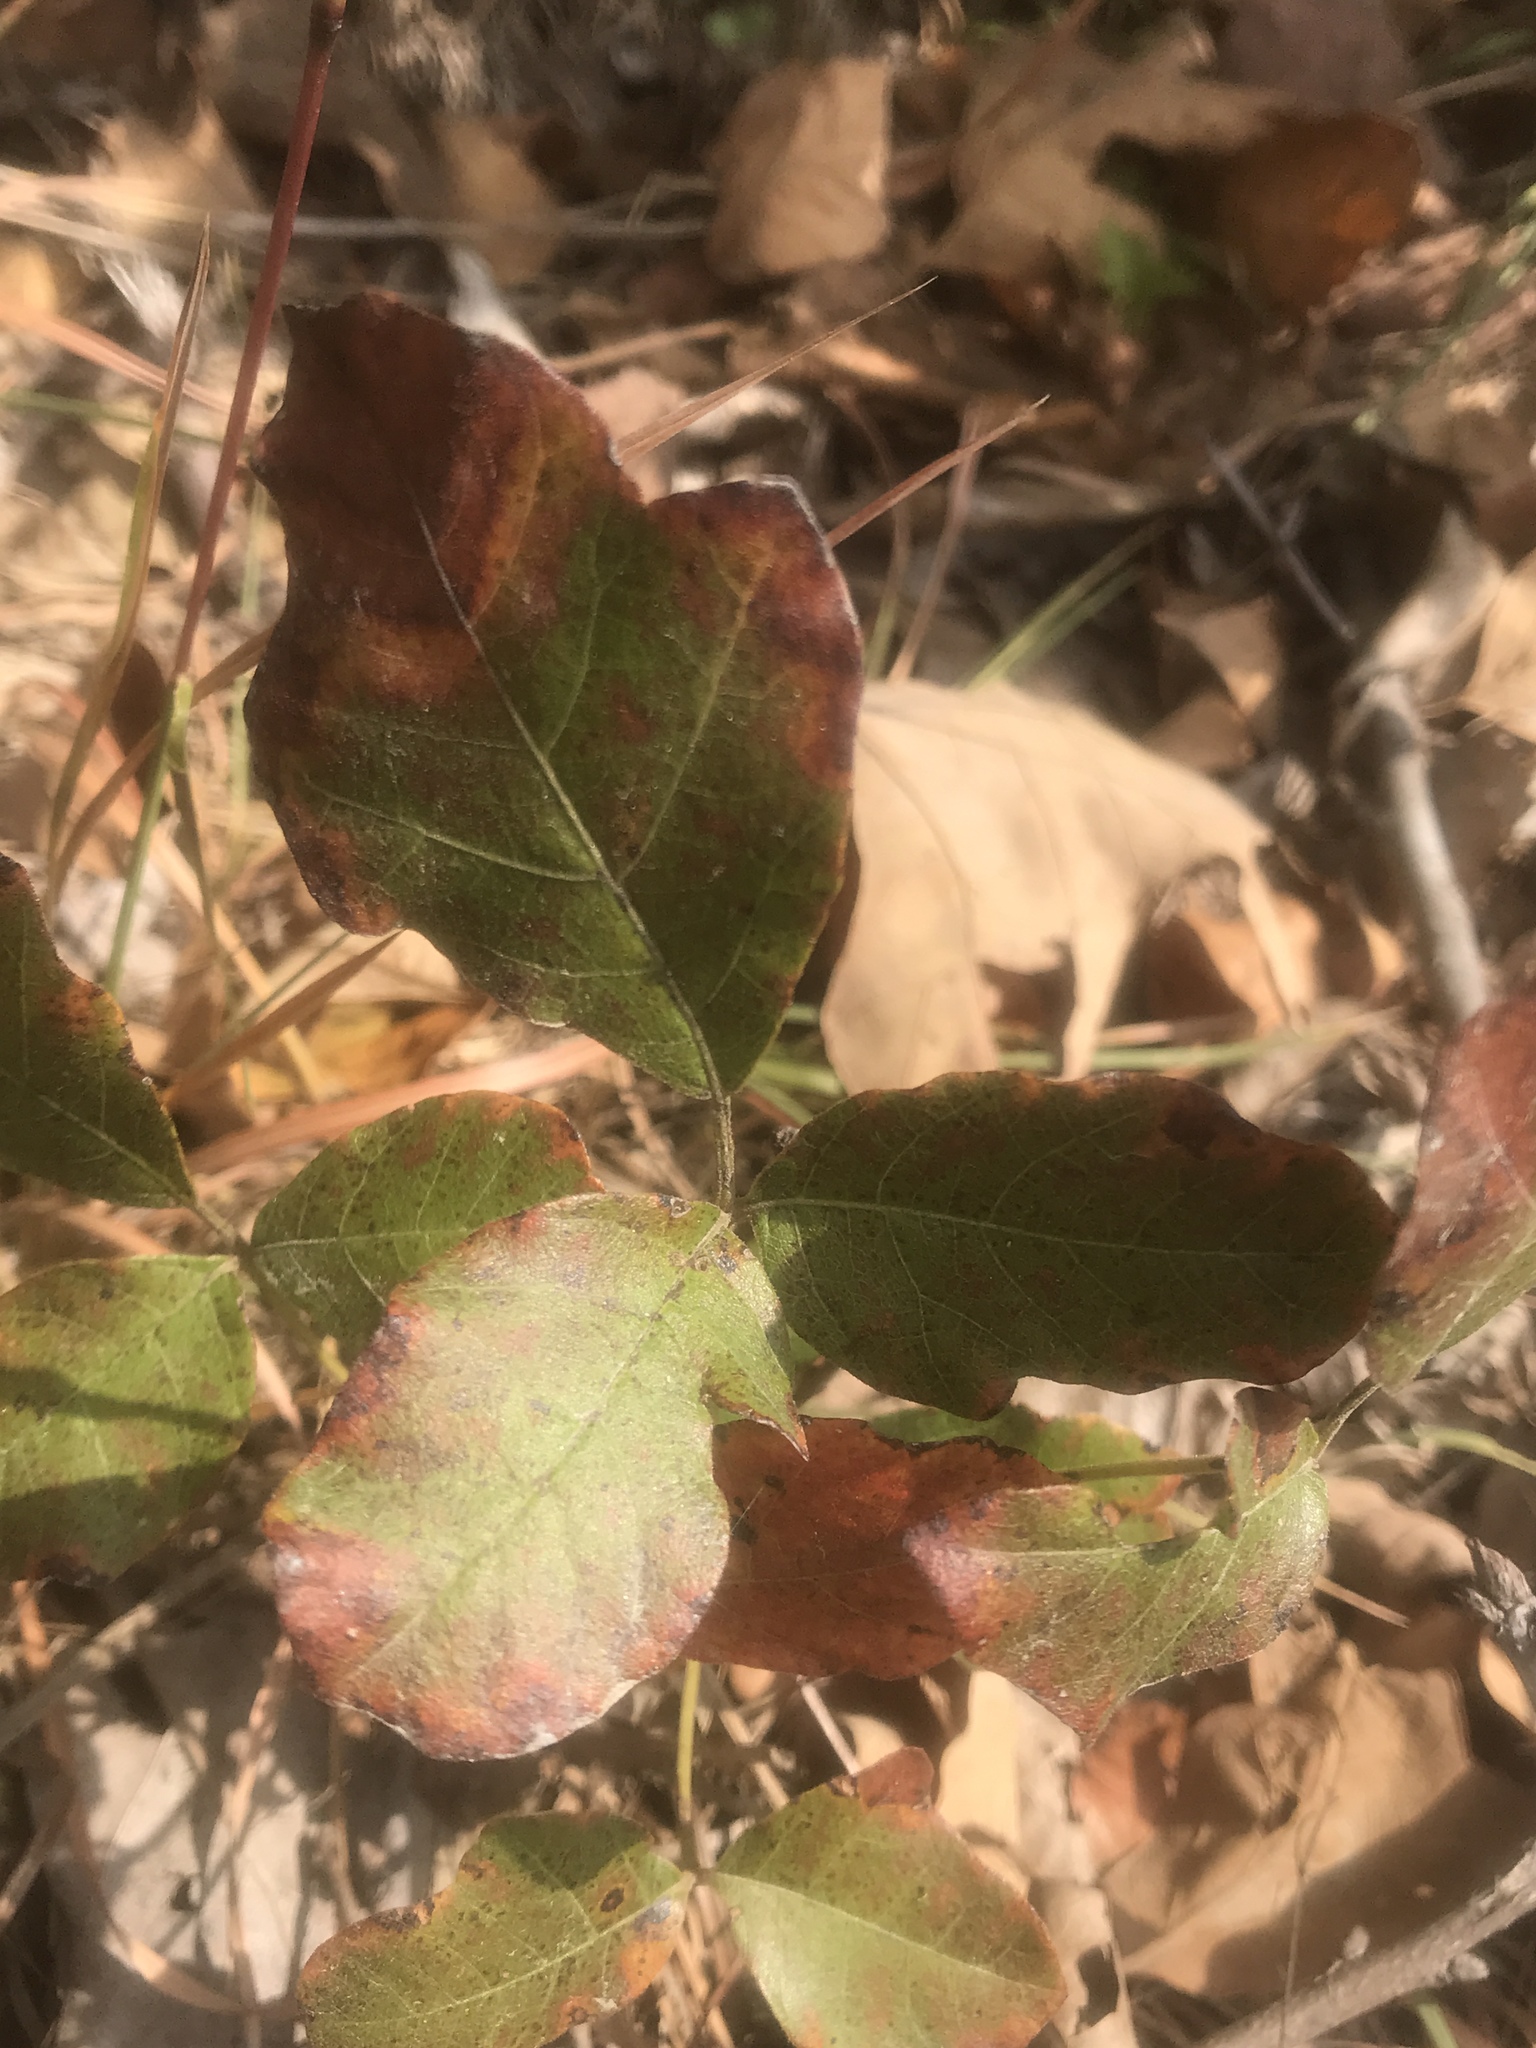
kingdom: Plantae
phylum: Tracheophyta
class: Magnoliopsida
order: Sapindales
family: Anacardiaceae
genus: Toxicodendron
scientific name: Toxicodendron pubescens
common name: Eastern poison-oak
